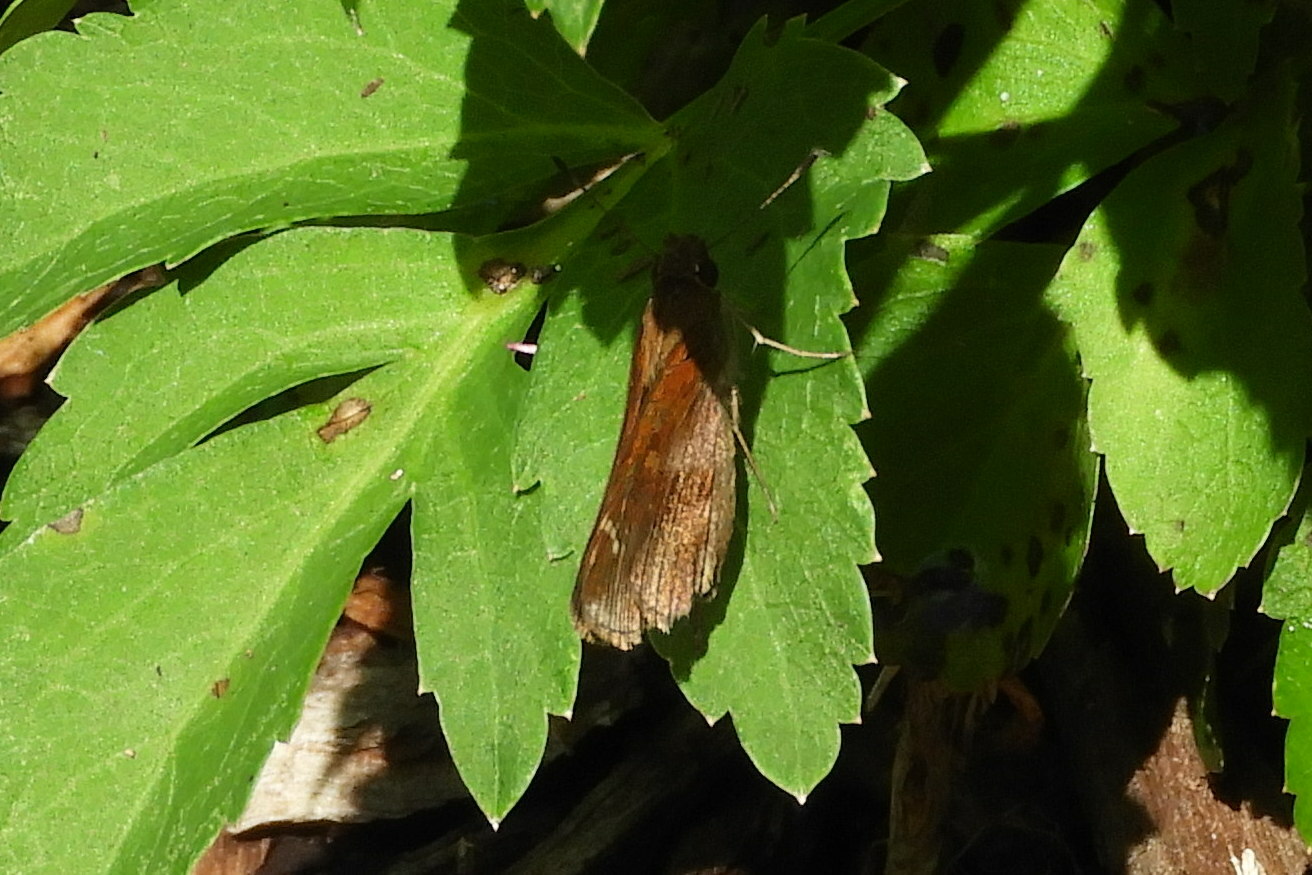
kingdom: Animalia
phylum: Arthropoda
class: Insecta
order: Lepidoptera
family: Hesperiidae
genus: Lerema
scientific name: Lerema accius
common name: Clouded skipper
